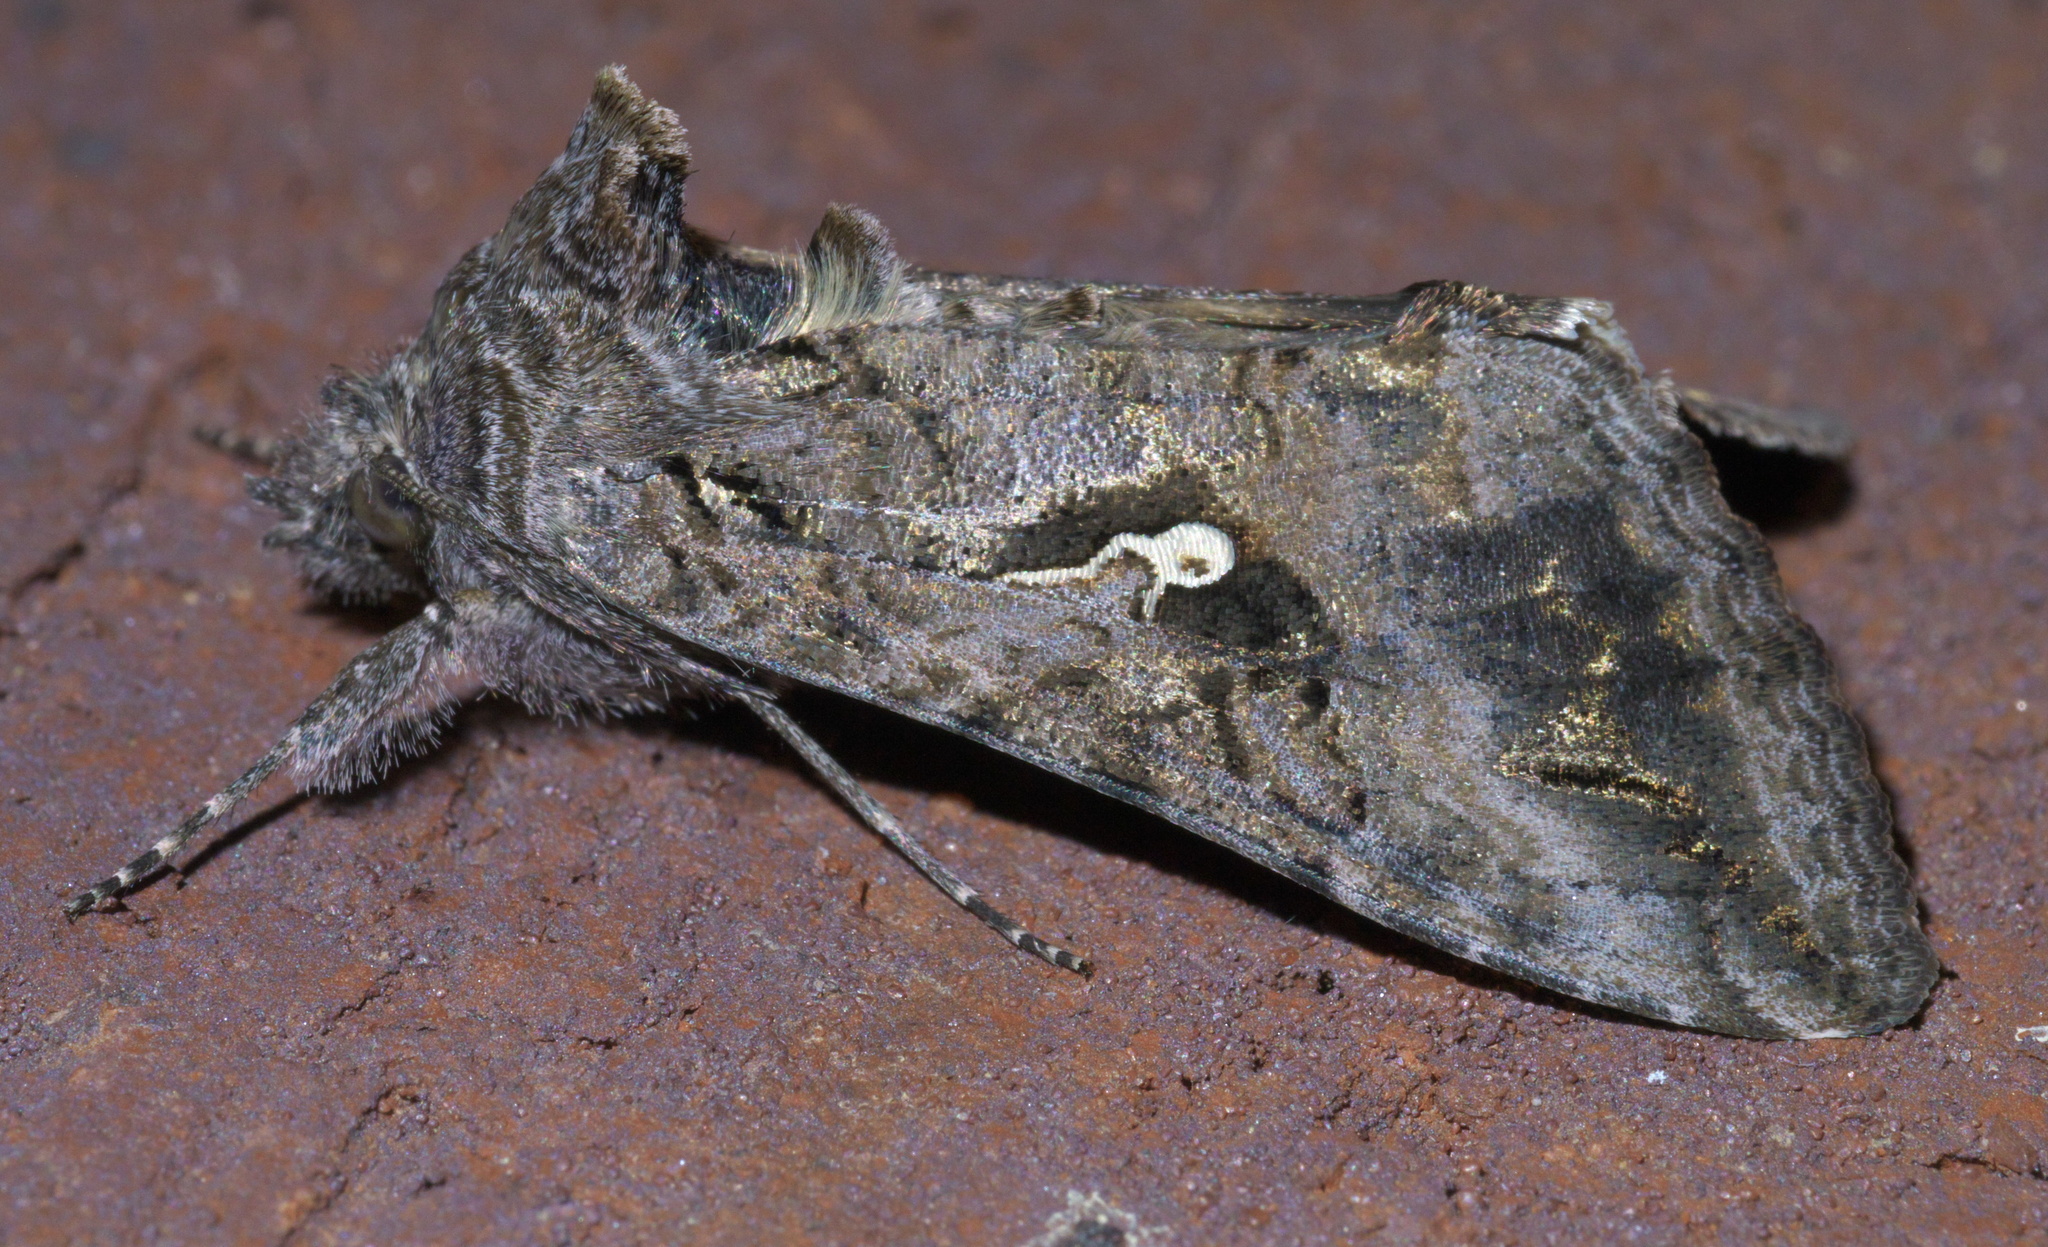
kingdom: Animalia
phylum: Arthropoda
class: Insecta
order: Lepidoptera
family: Noctuidae
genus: Rachiplusia
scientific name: Rachiplusia ou
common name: Gray looper moth
